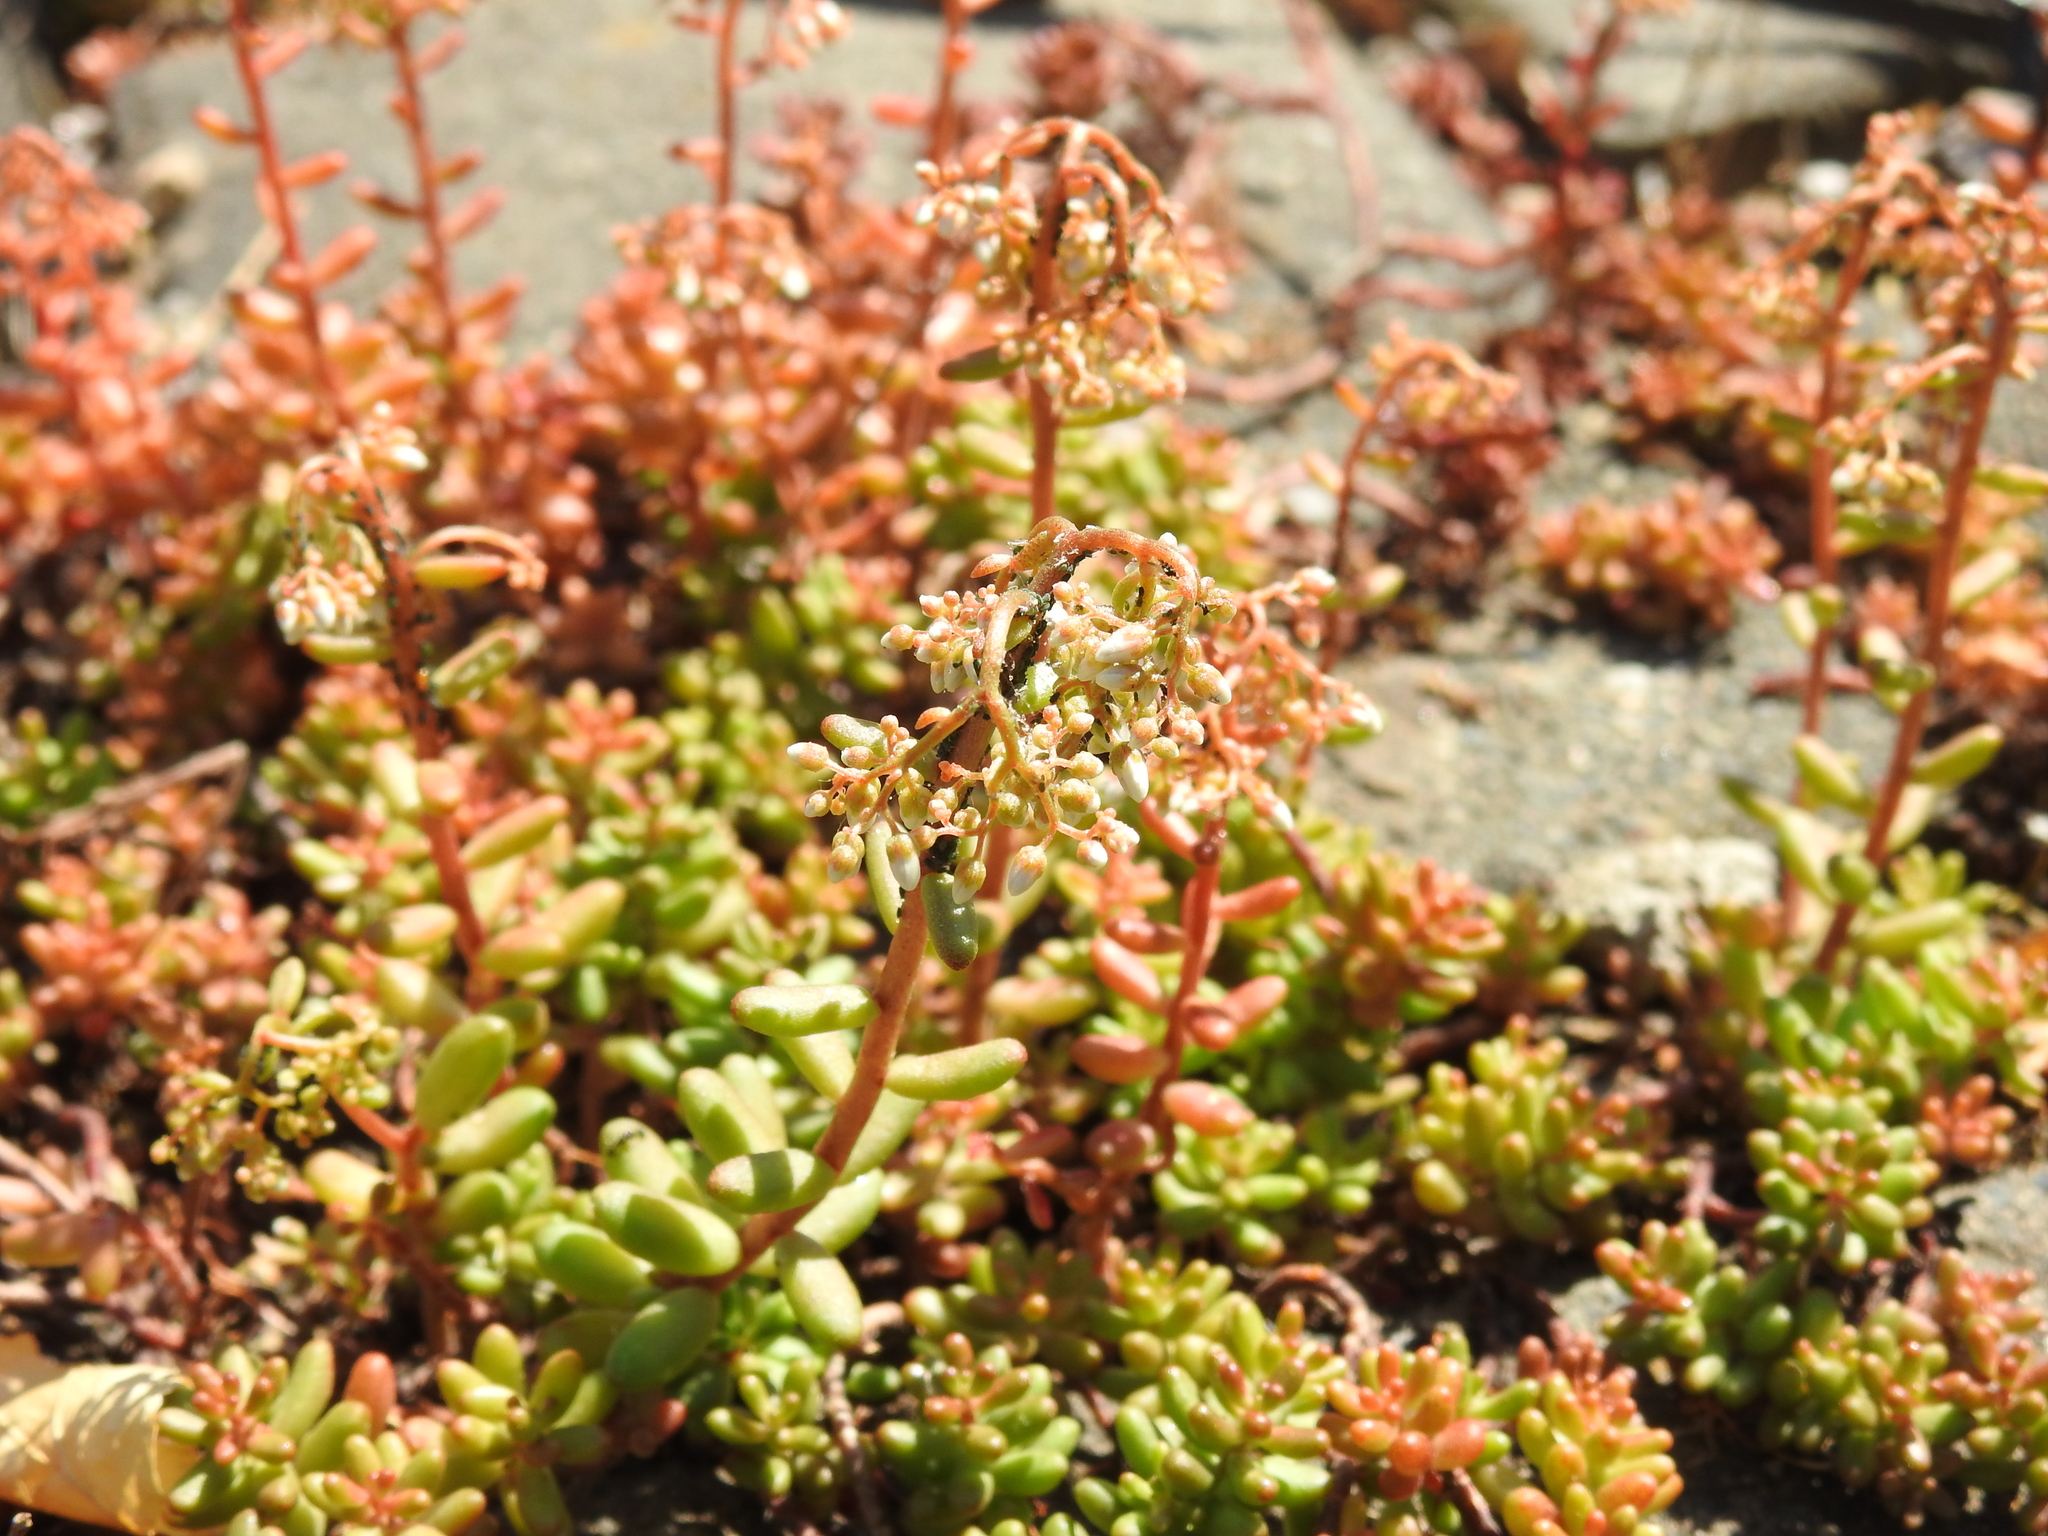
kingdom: Plantae
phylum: Tracheophyta
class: Magnoliopsida
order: Saxifragales
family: Crassulaceae
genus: Sedum
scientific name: Sedum album
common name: White stonecrop
